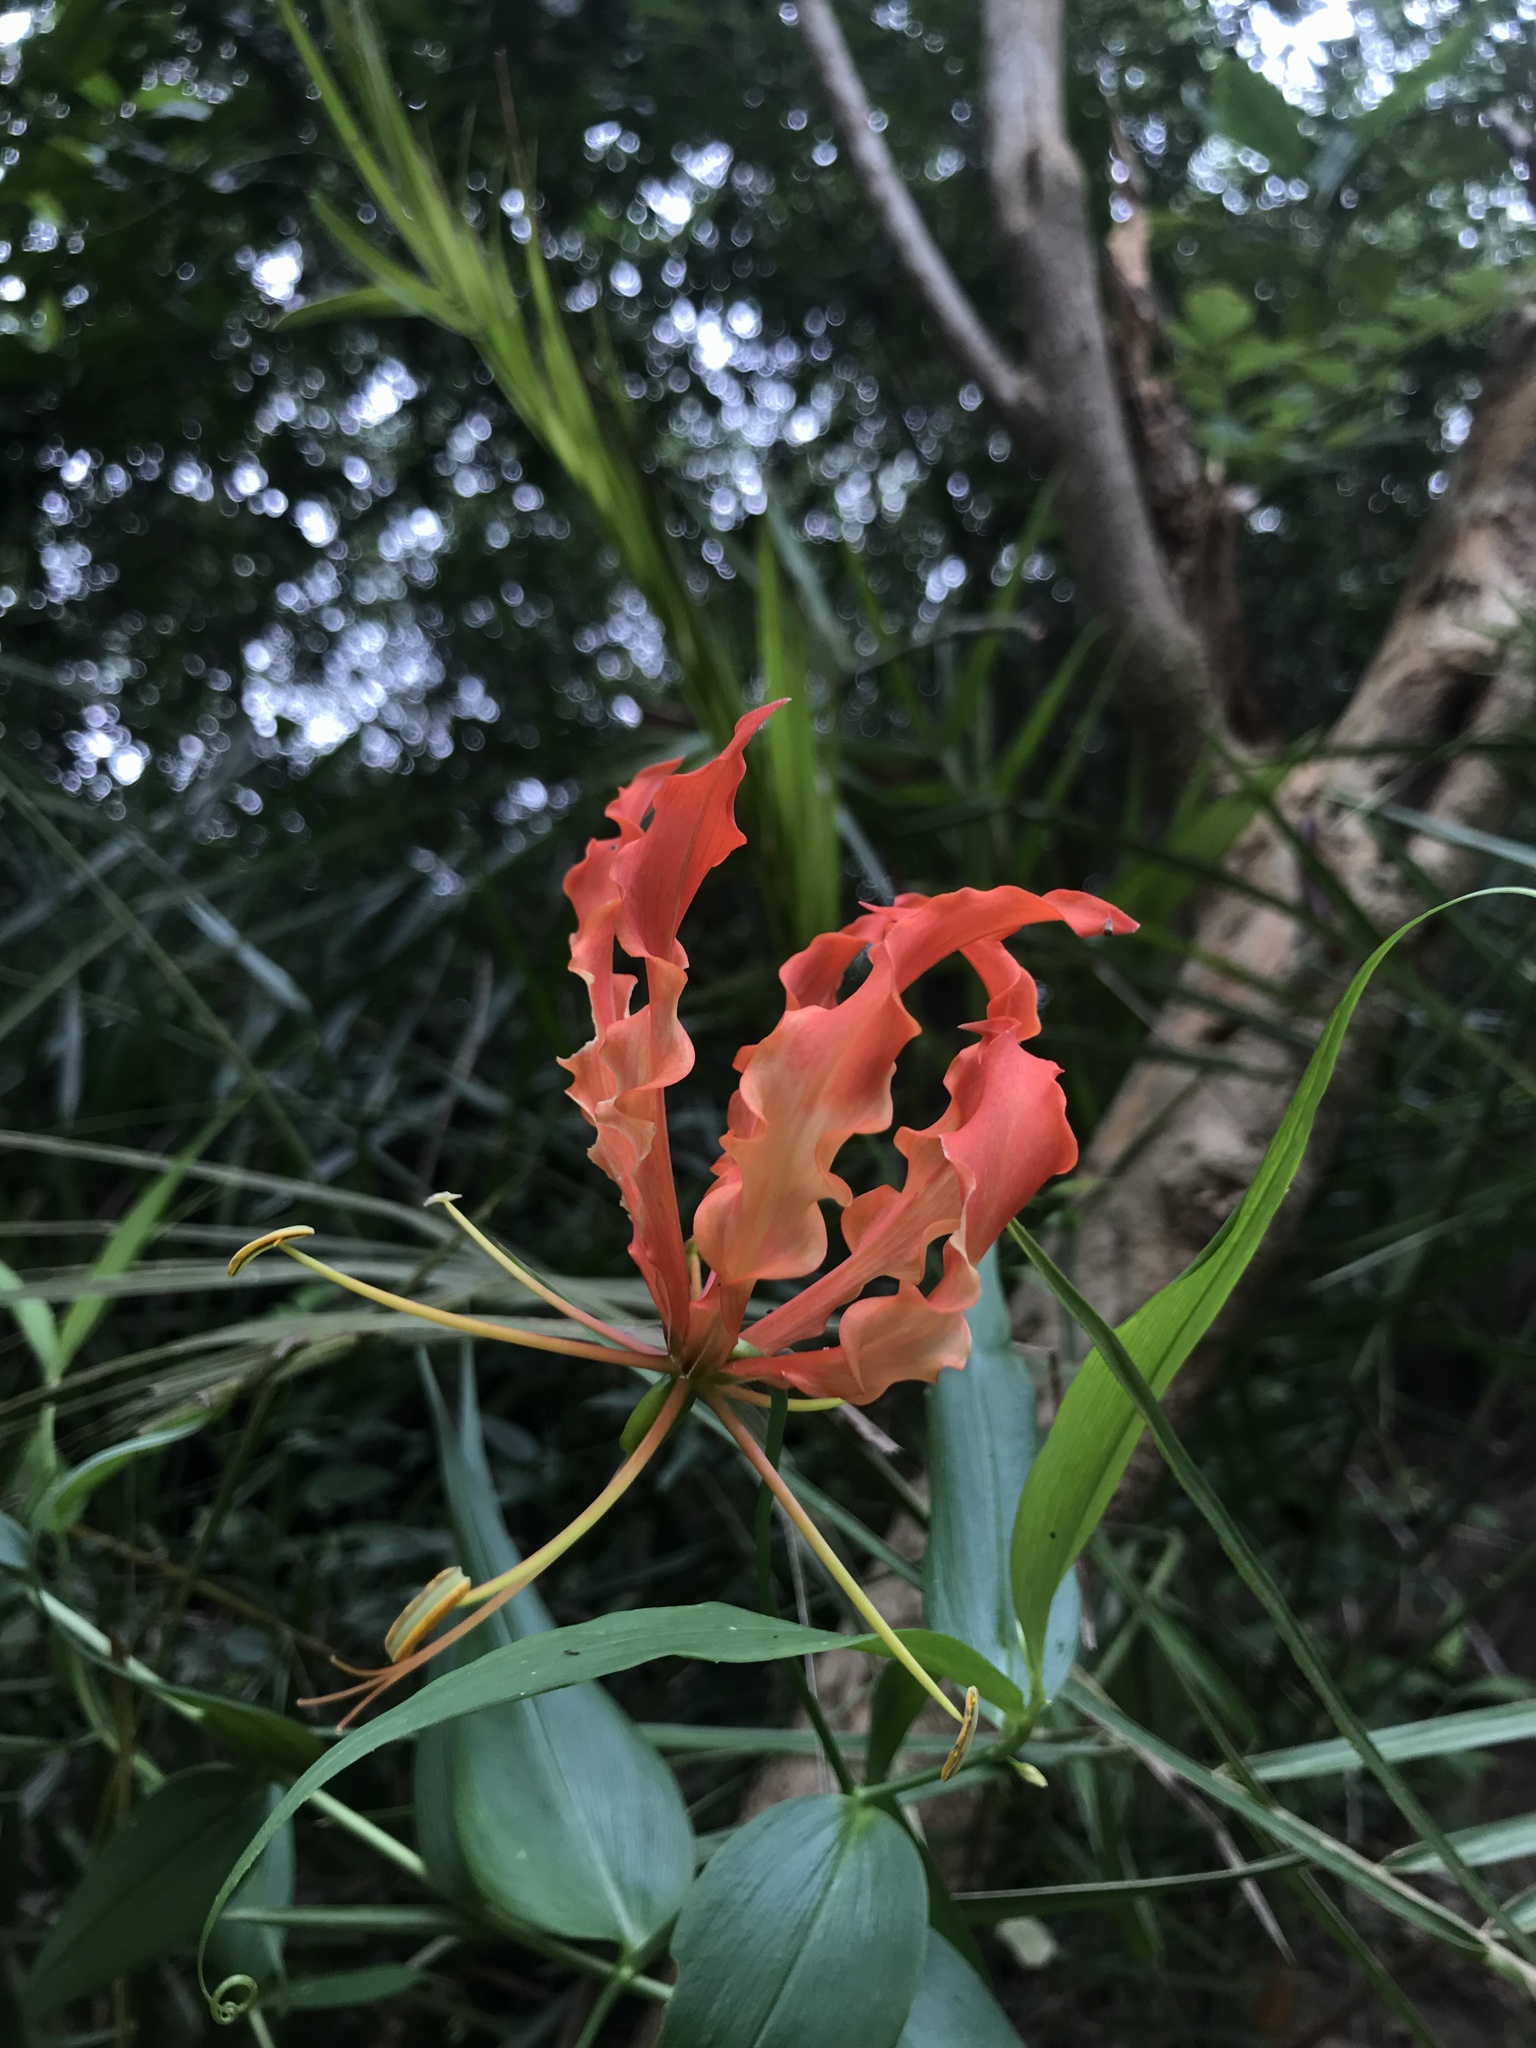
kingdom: Plantae
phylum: Tracheophyta
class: Liliopsida
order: Liliales
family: Colchicaceae
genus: Gloriosa
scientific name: Gloriosa superba
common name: Flame lily
